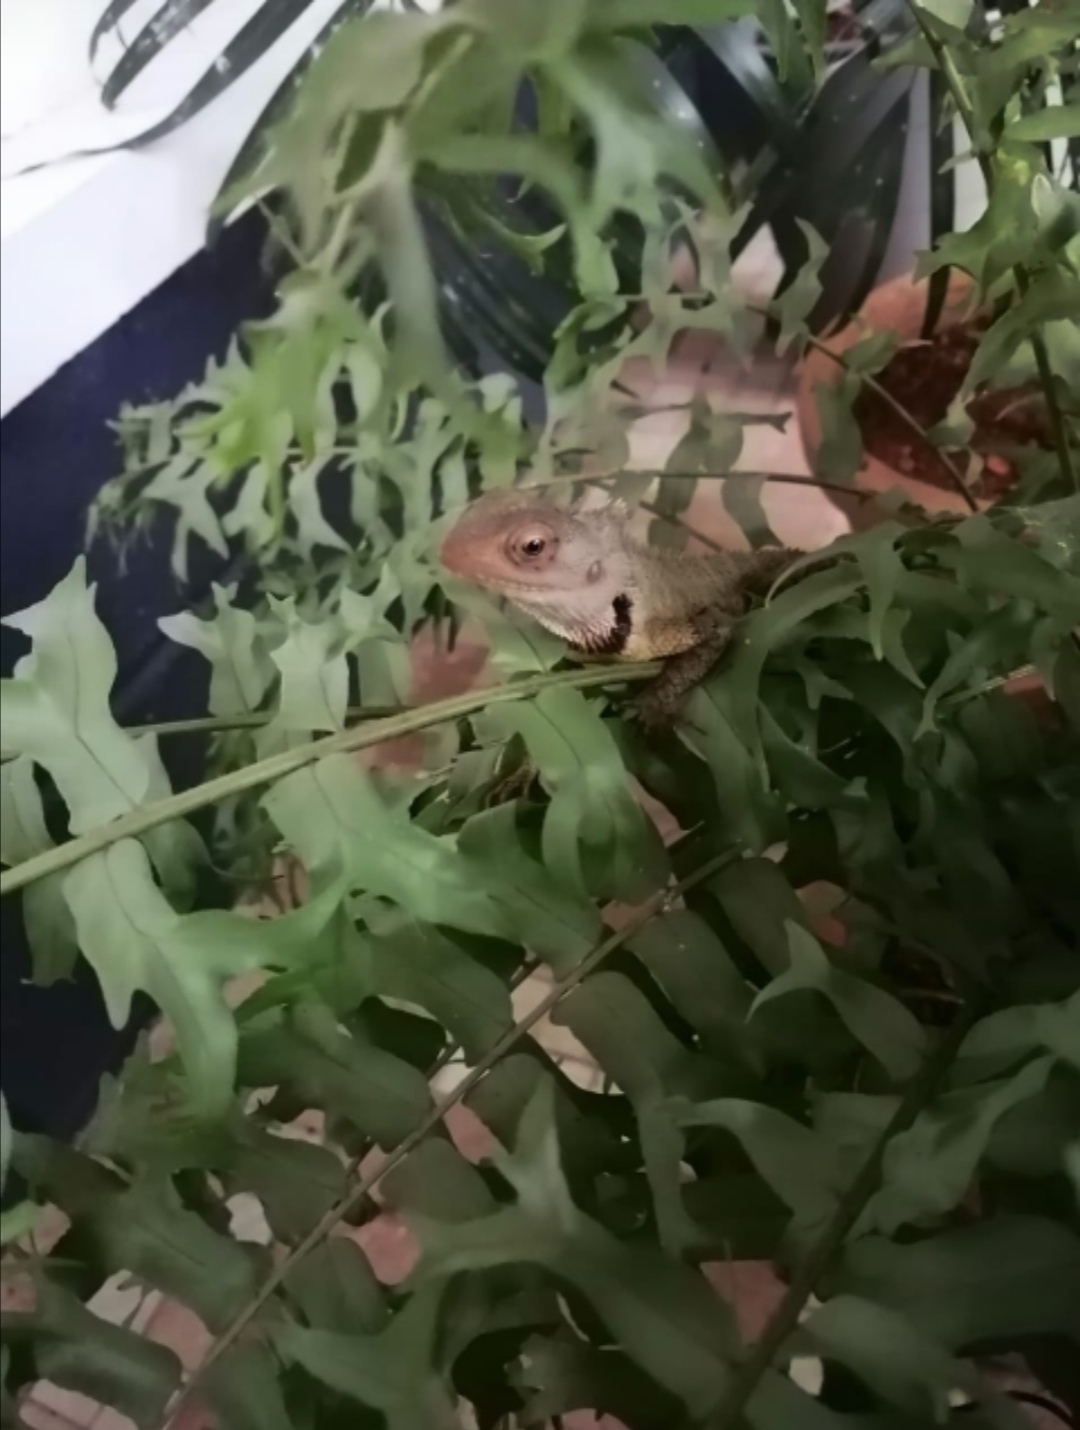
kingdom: Animalia
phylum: Chordata
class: Squamata
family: Agamidae
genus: Calotes
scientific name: Calotes versicolor
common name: Oriental garden lizard
